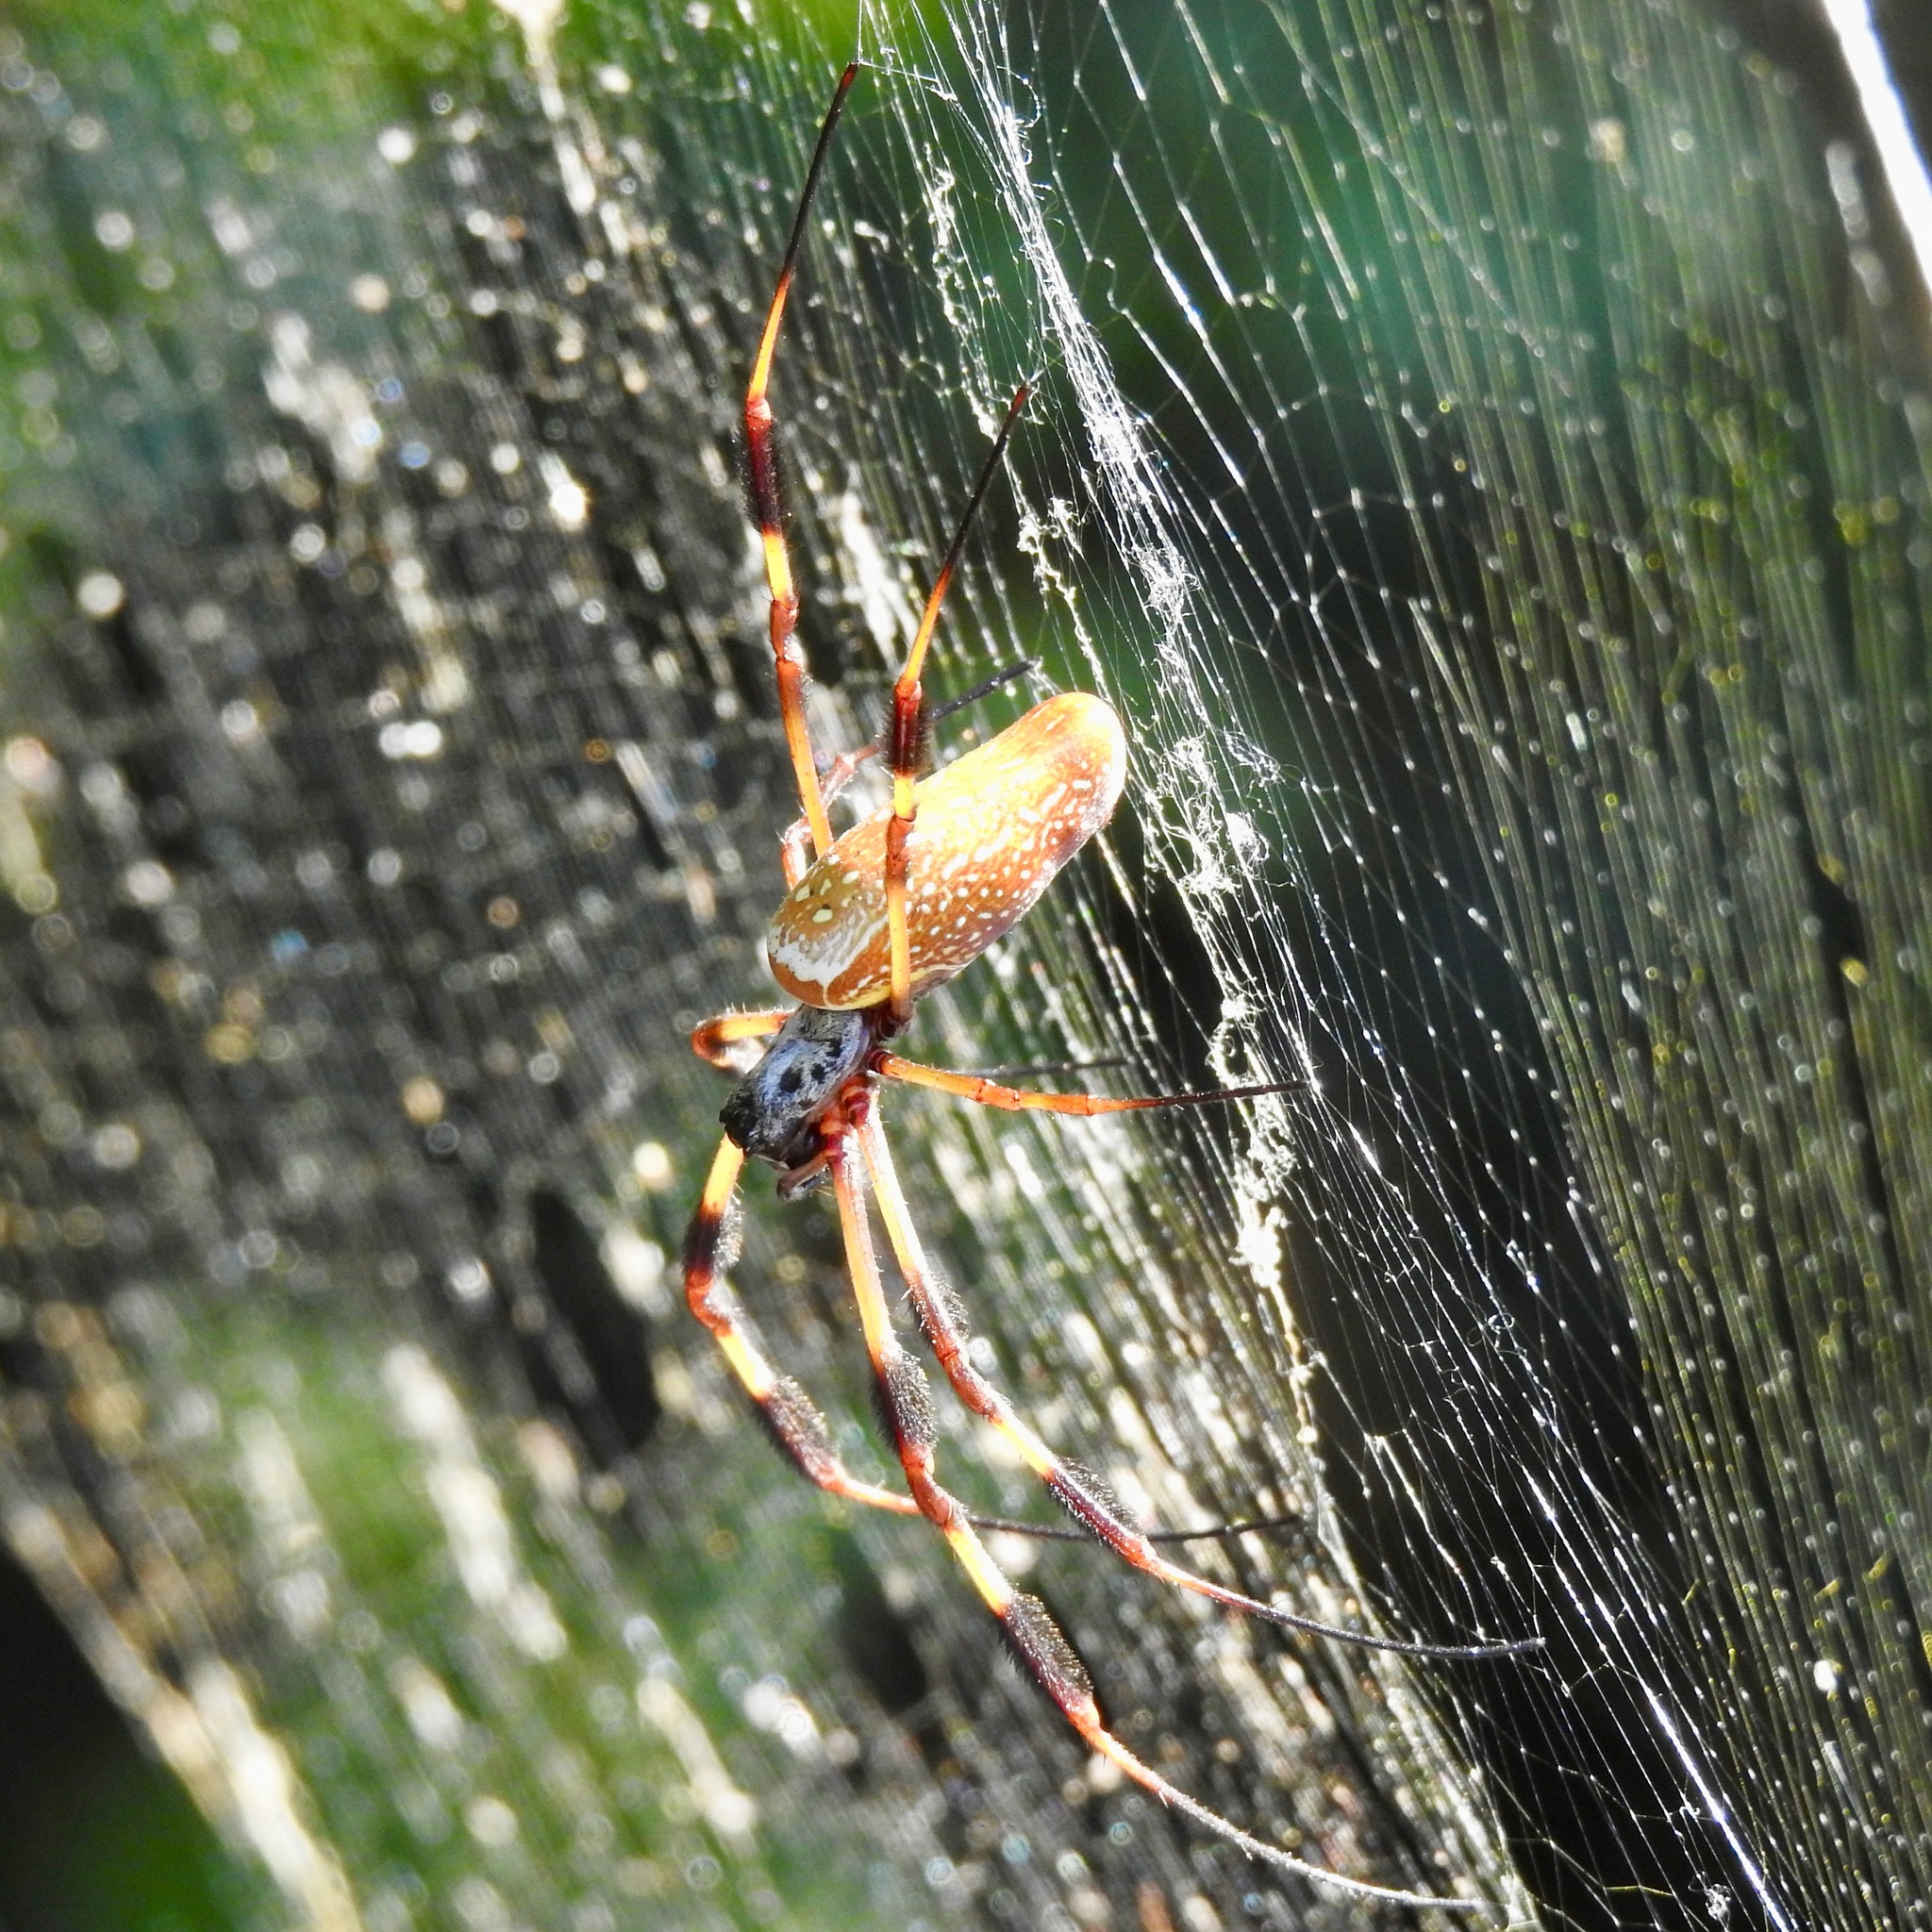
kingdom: Animalia
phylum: Arthropoda
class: Arachnida
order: Araneae
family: Araneidae
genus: Trichonephila
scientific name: Trichonephila clavipes
